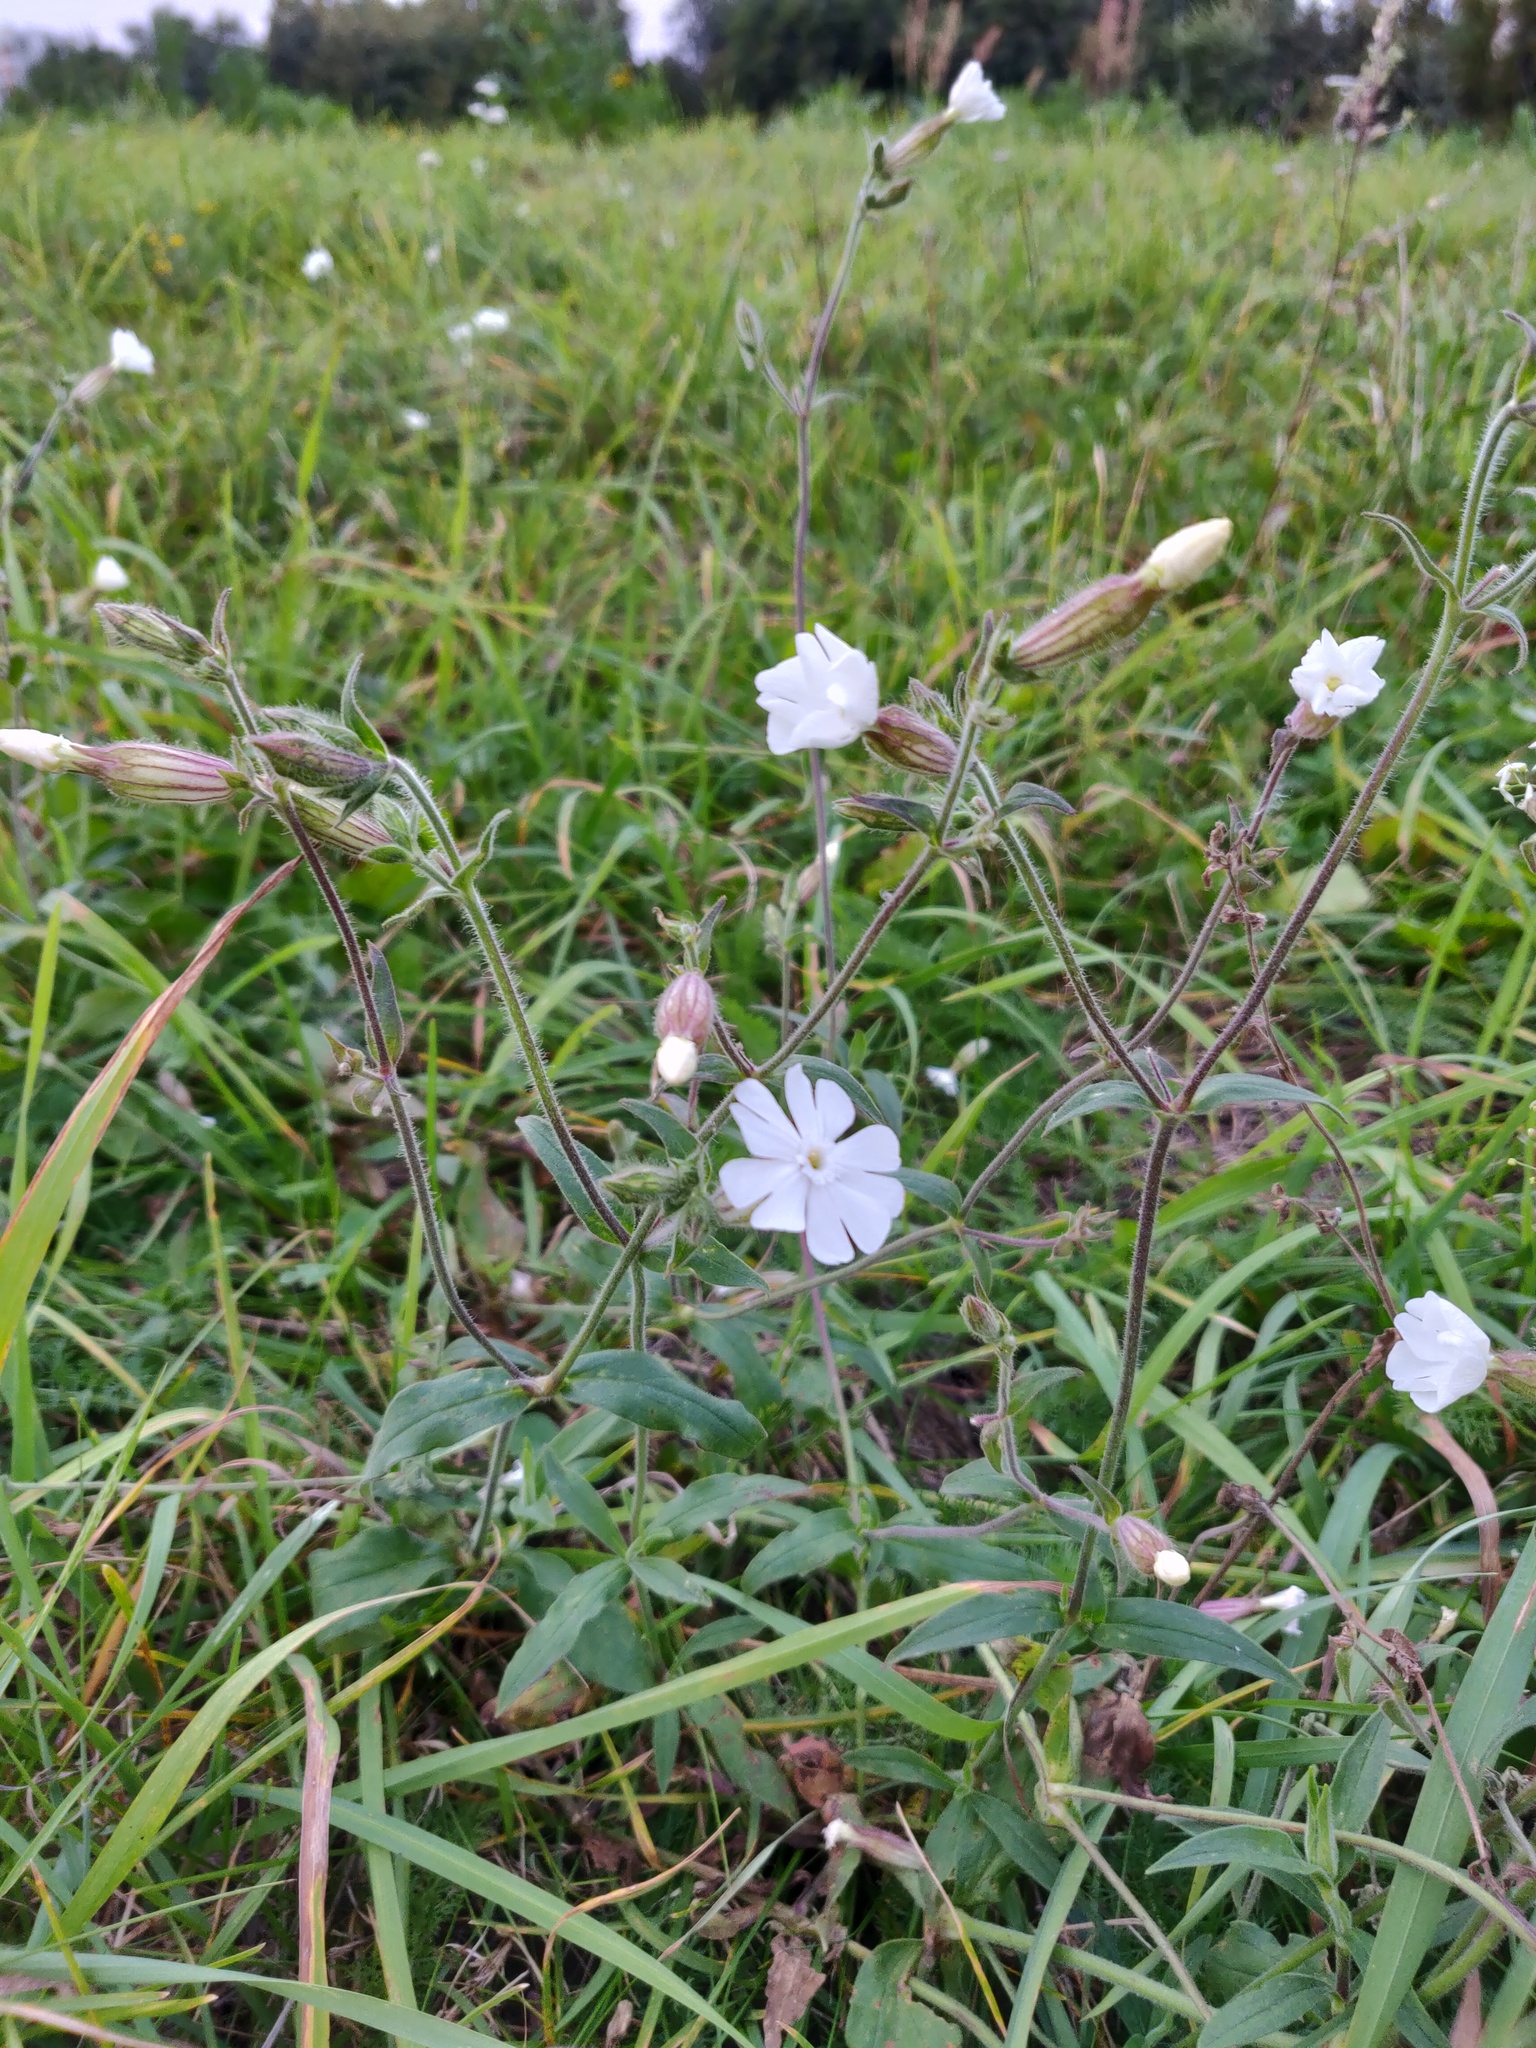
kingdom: Plantae
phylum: Tracheophyta
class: Magnoliopsida
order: Caryophyllales
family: Caryophyllaceae
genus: Silene
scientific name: Silene latifolia
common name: White campion
